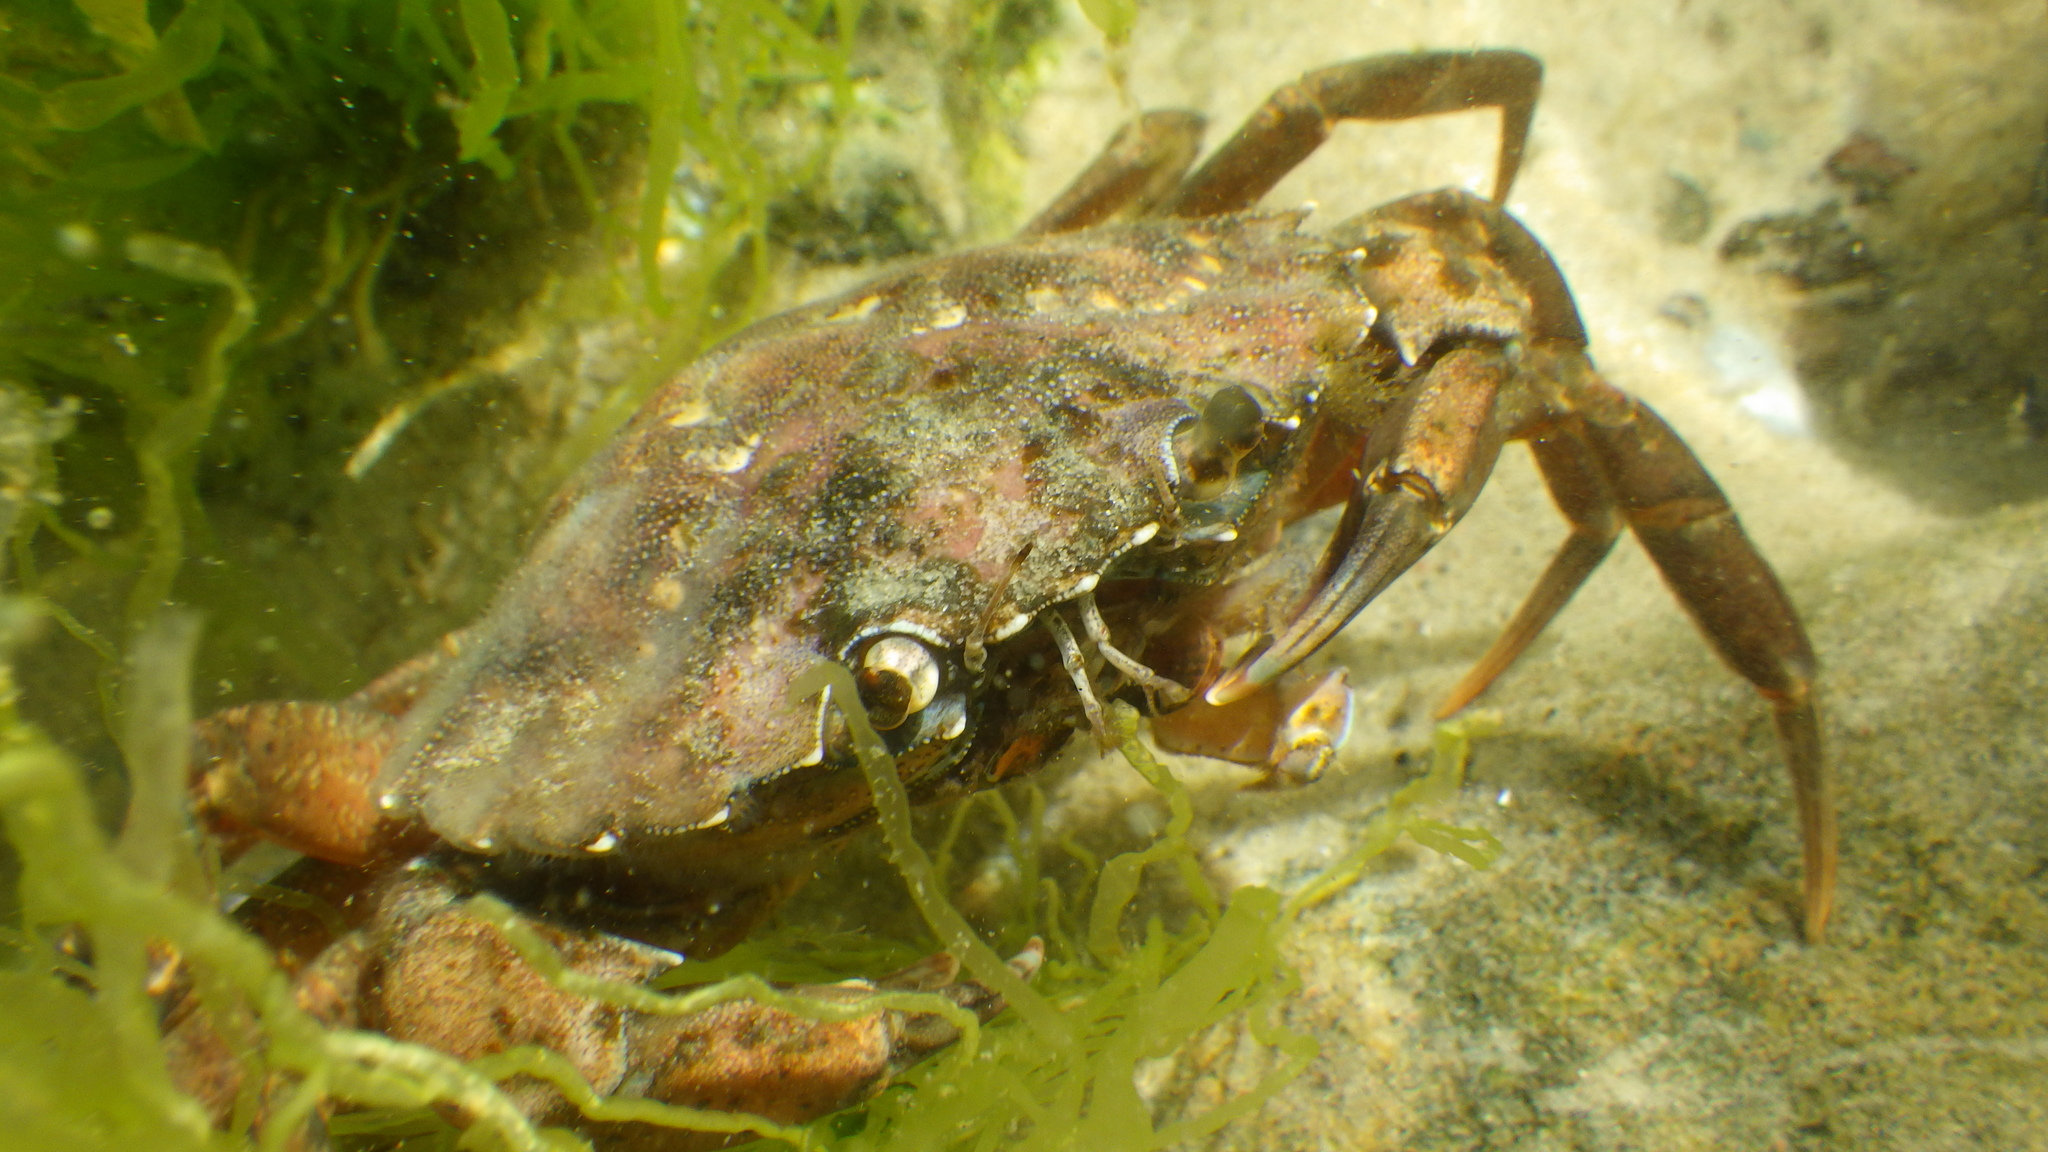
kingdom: Animalia
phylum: Arthropoda
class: Malacostraca
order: Decapoda
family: Carcinidae
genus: Carcinus
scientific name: Carcinus maenas
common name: European green crab
